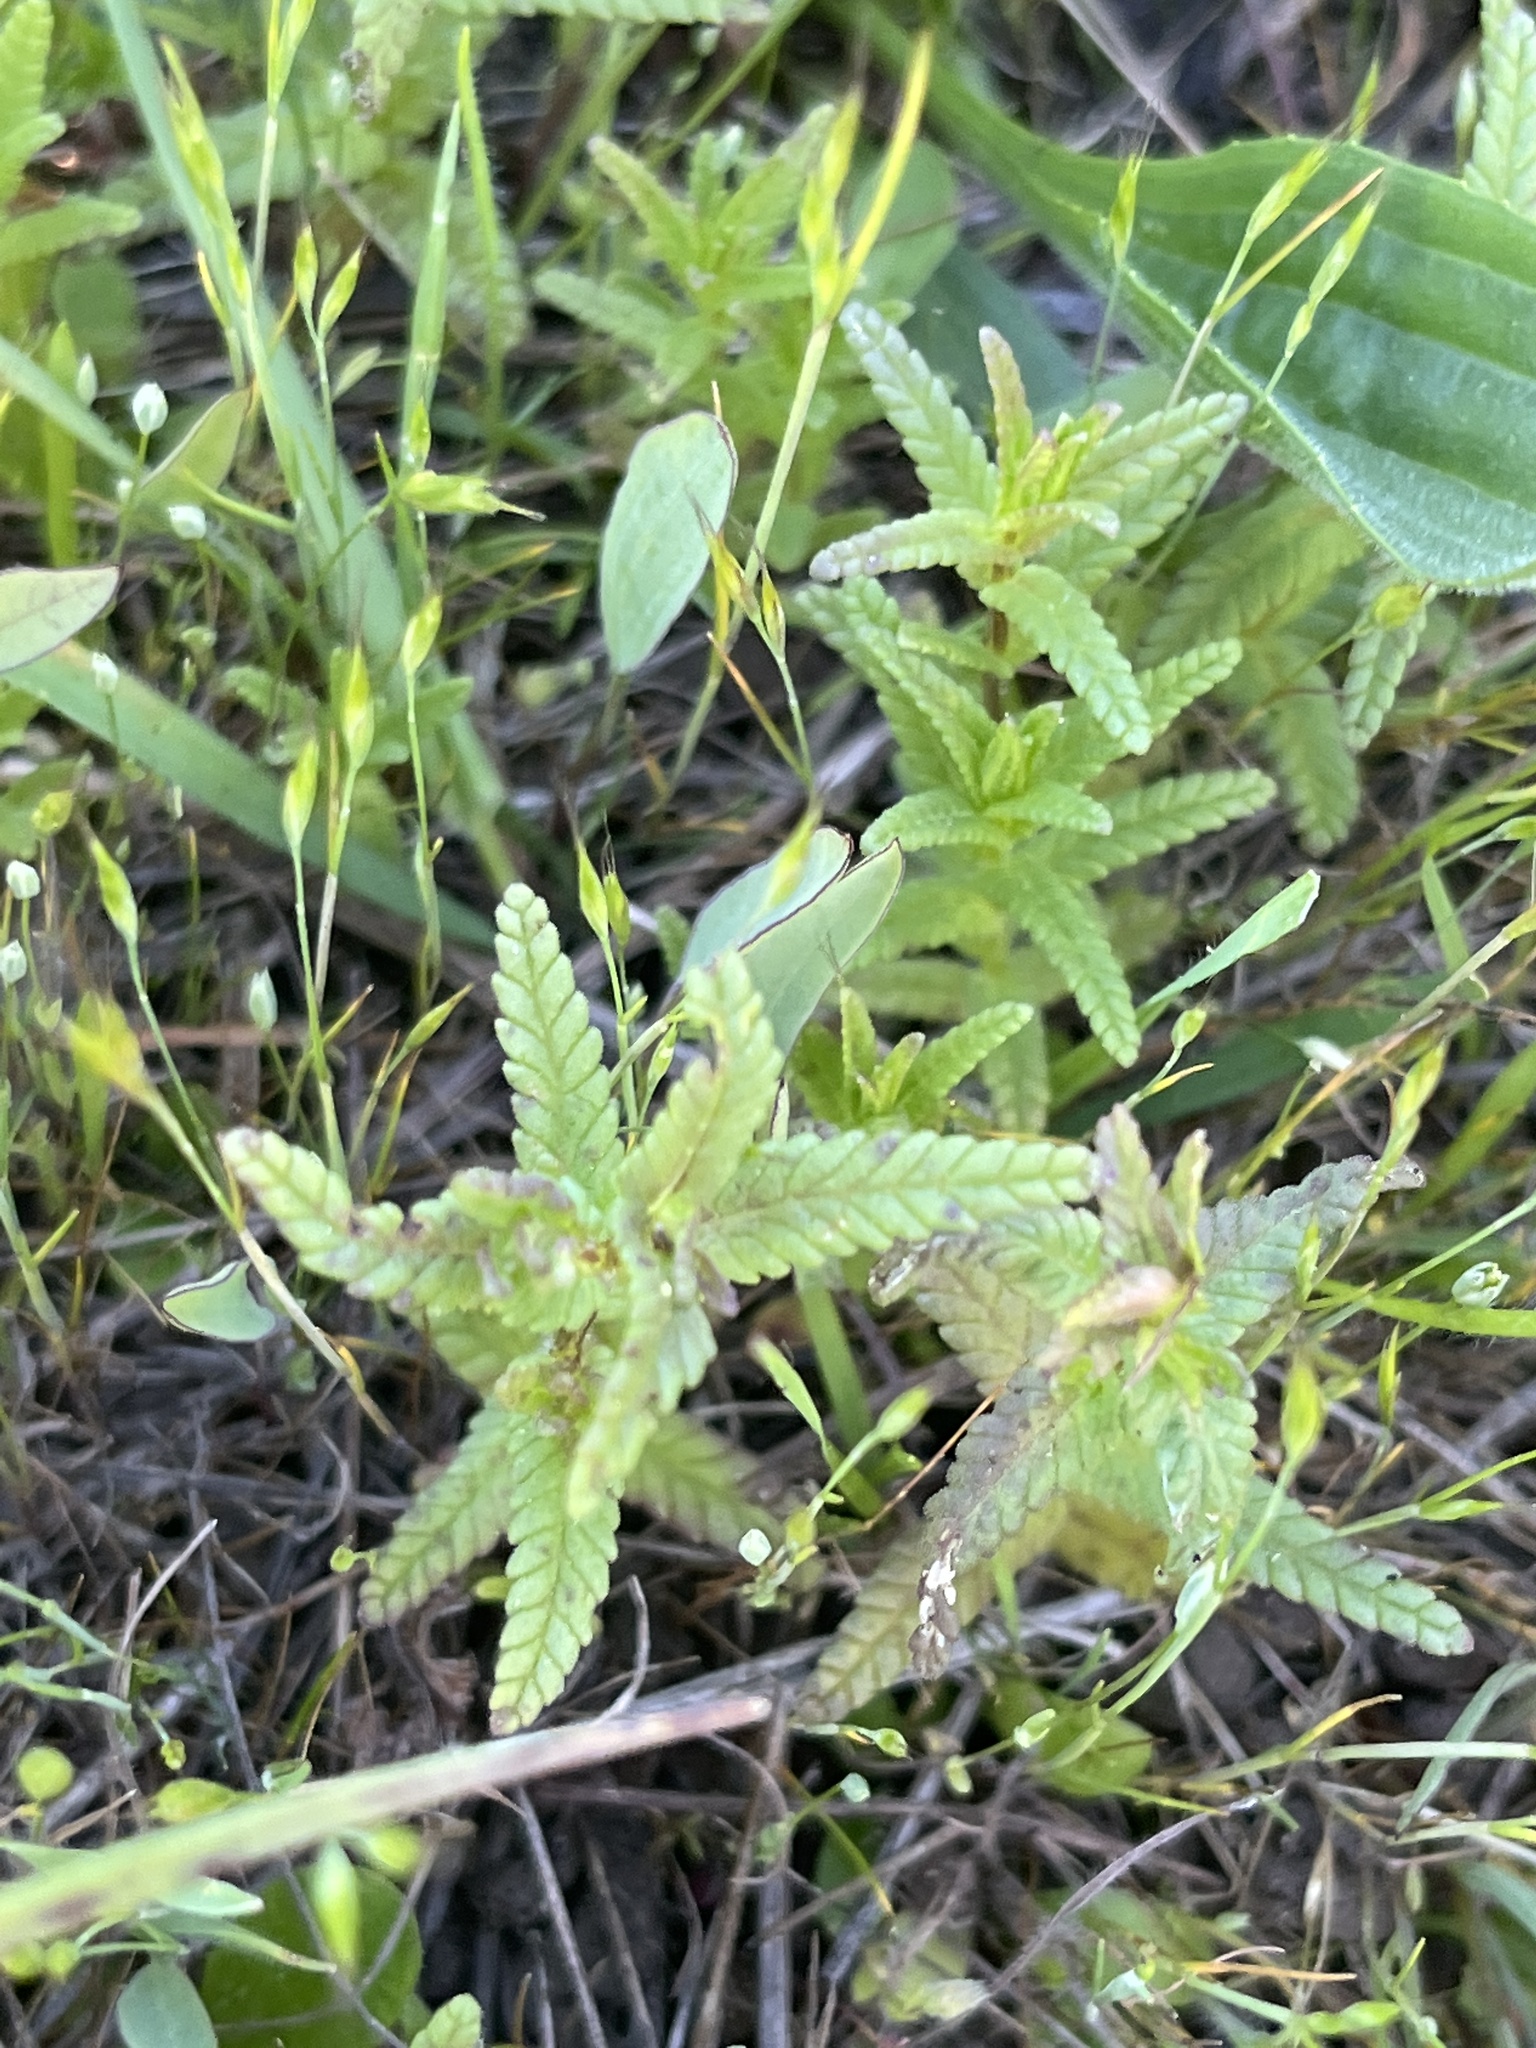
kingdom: Plantae
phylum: Tracheophyta
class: Magnoliopsida
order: Lamiales
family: Orobanchaceae
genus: Rhinanthus
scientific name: Rhinanthus minor
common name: Yellow-rattle
